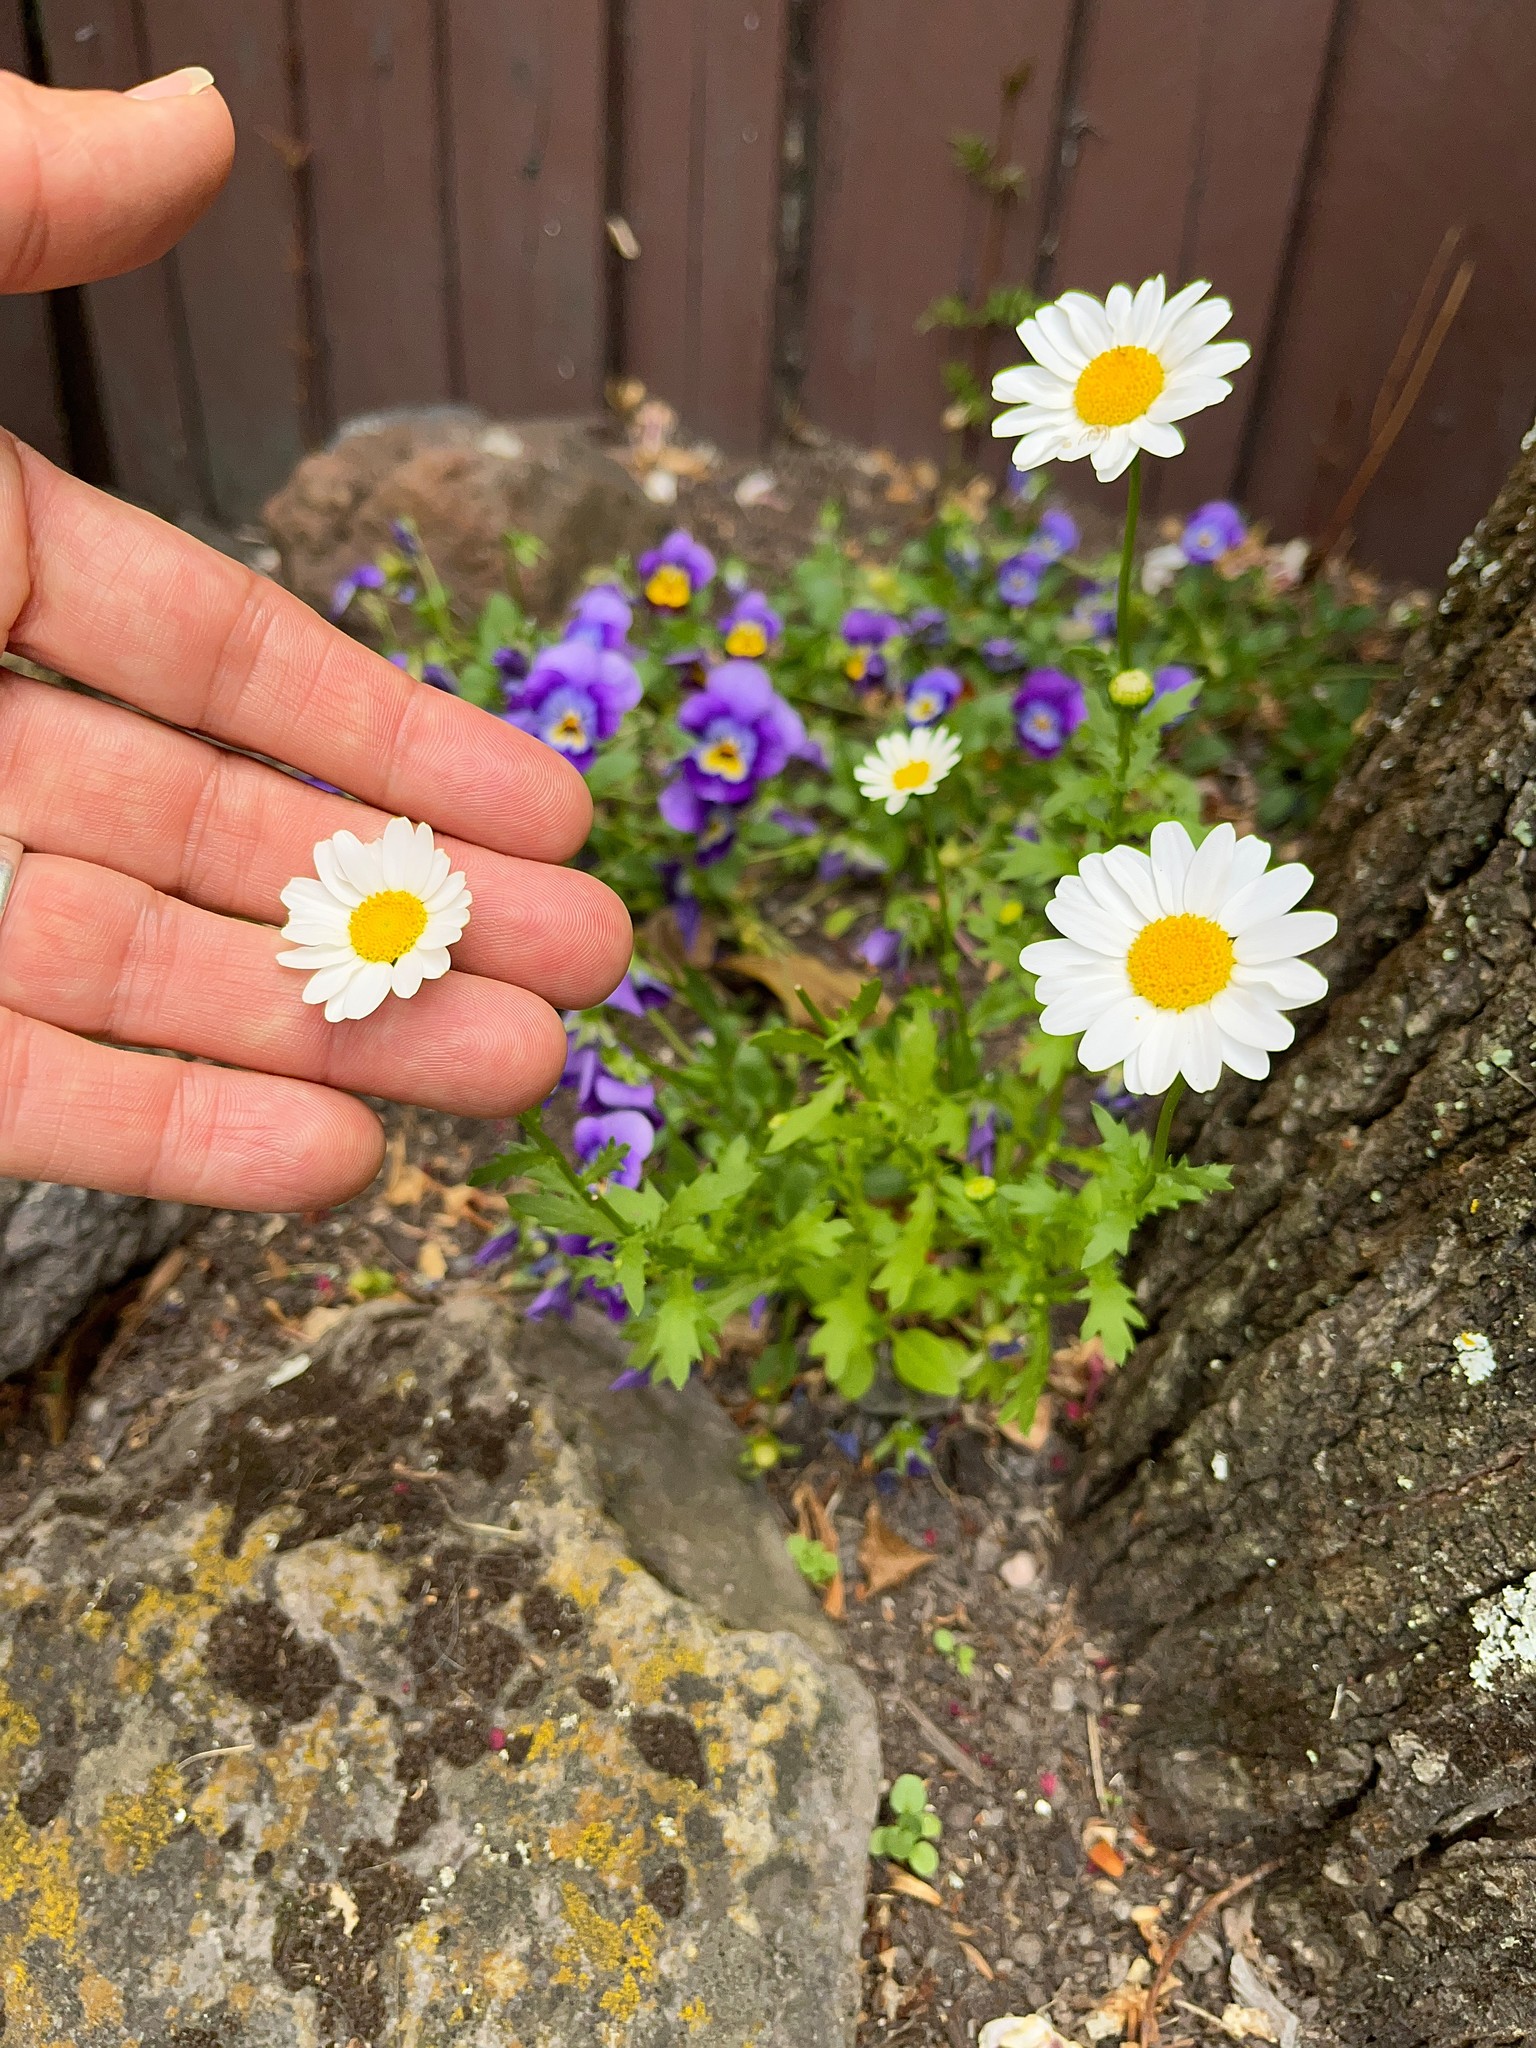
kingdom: Plantae
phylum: Tracheophyta
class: Magnoliopsida
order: Asterales
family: Asteraceae
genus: Mauranthemum
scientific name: Mauranthemum paludosum
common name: Sunflower
